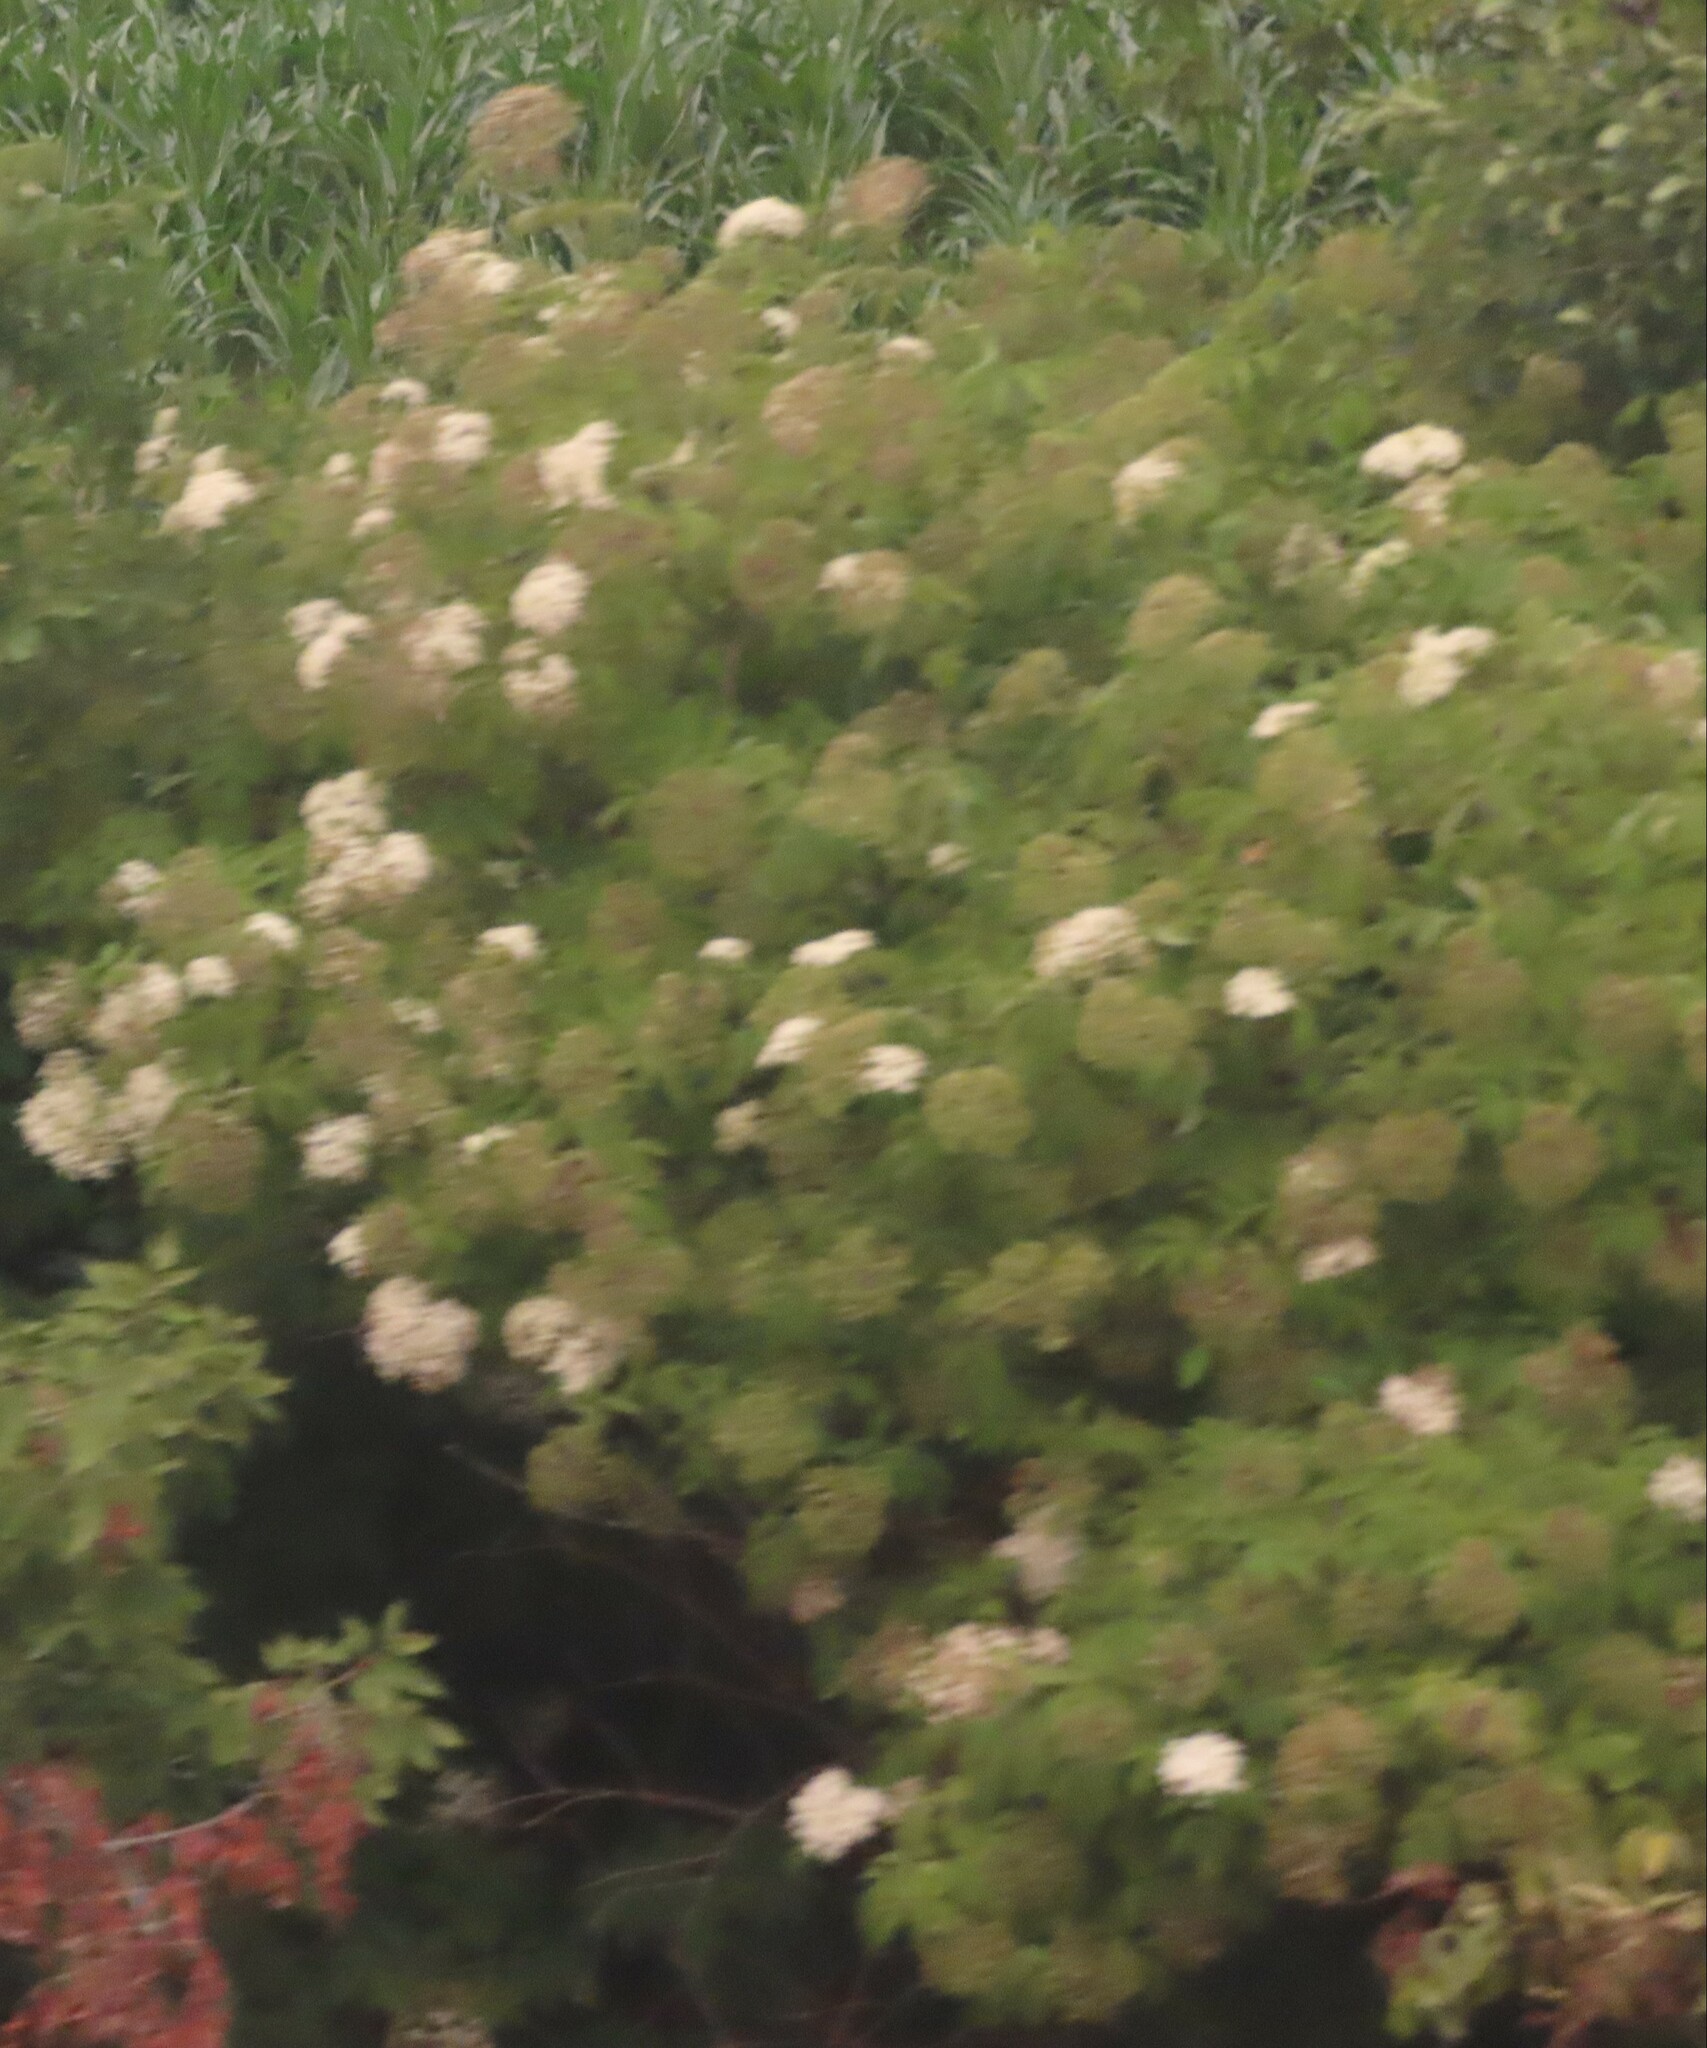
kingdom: Plantae
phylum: Tracheophyta
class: Magnoliopsida
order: Dipsacales
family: Viburnaceae
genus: Sambucus
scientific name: Sambucus canadensis
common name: American elder
